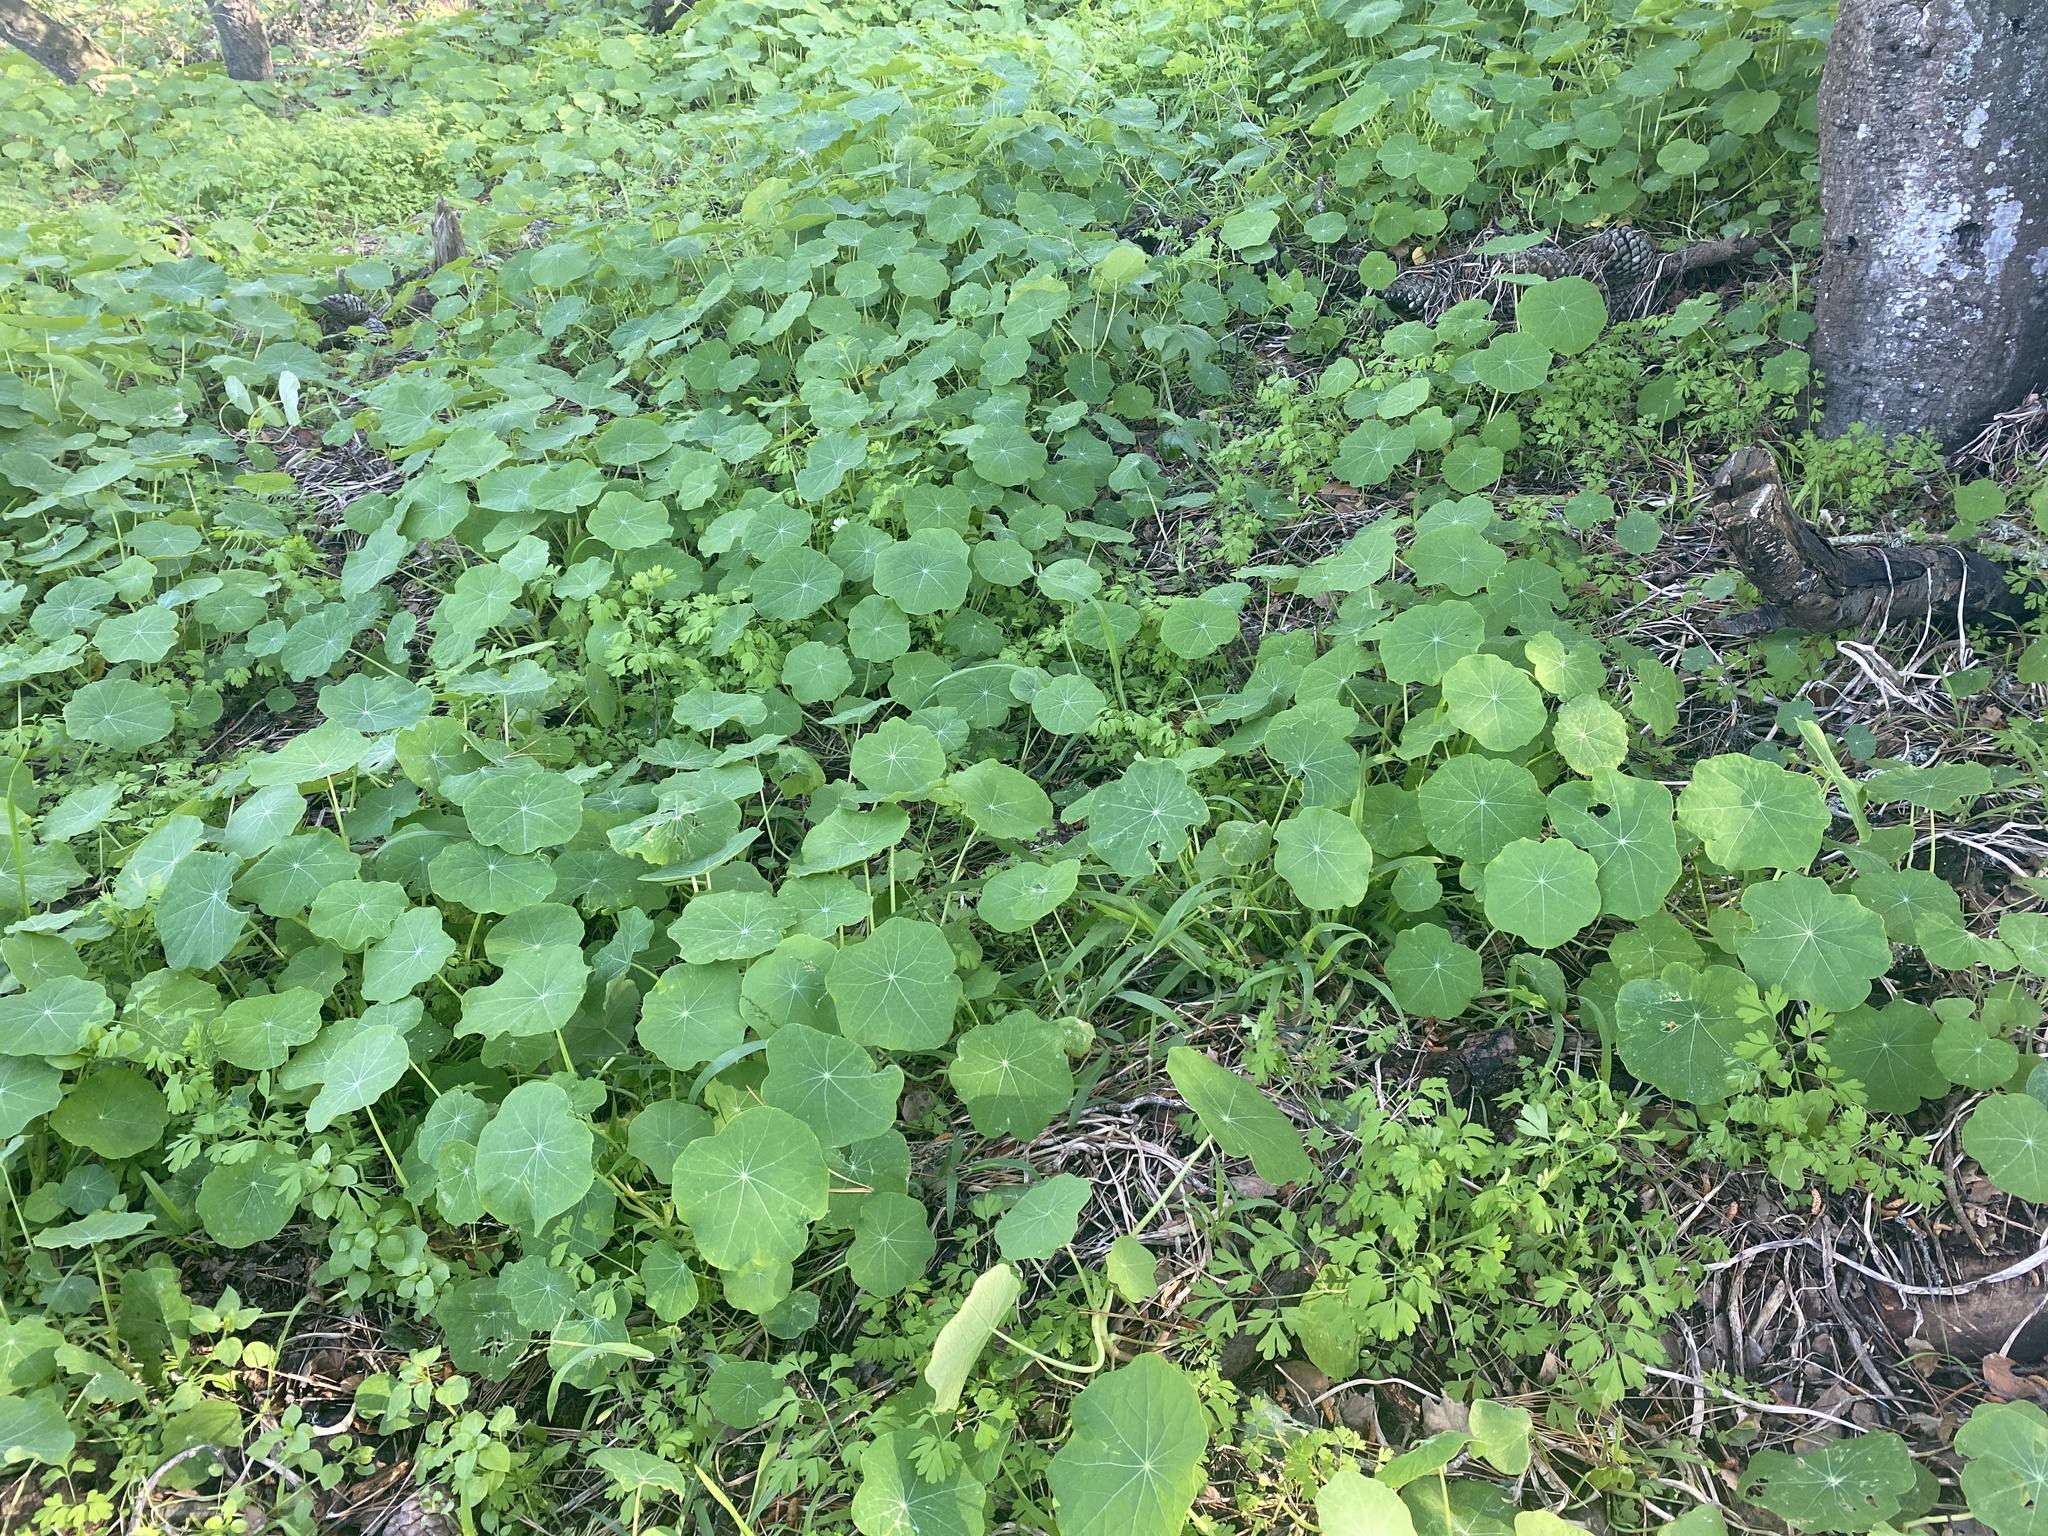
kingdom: Plantae
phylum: Tracheophyta
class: Magnoliopsida
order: Brassicales
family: Tropaeolaceae
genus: Tropaeolum
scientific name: Tropaeolum majus
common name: Nasturtium
